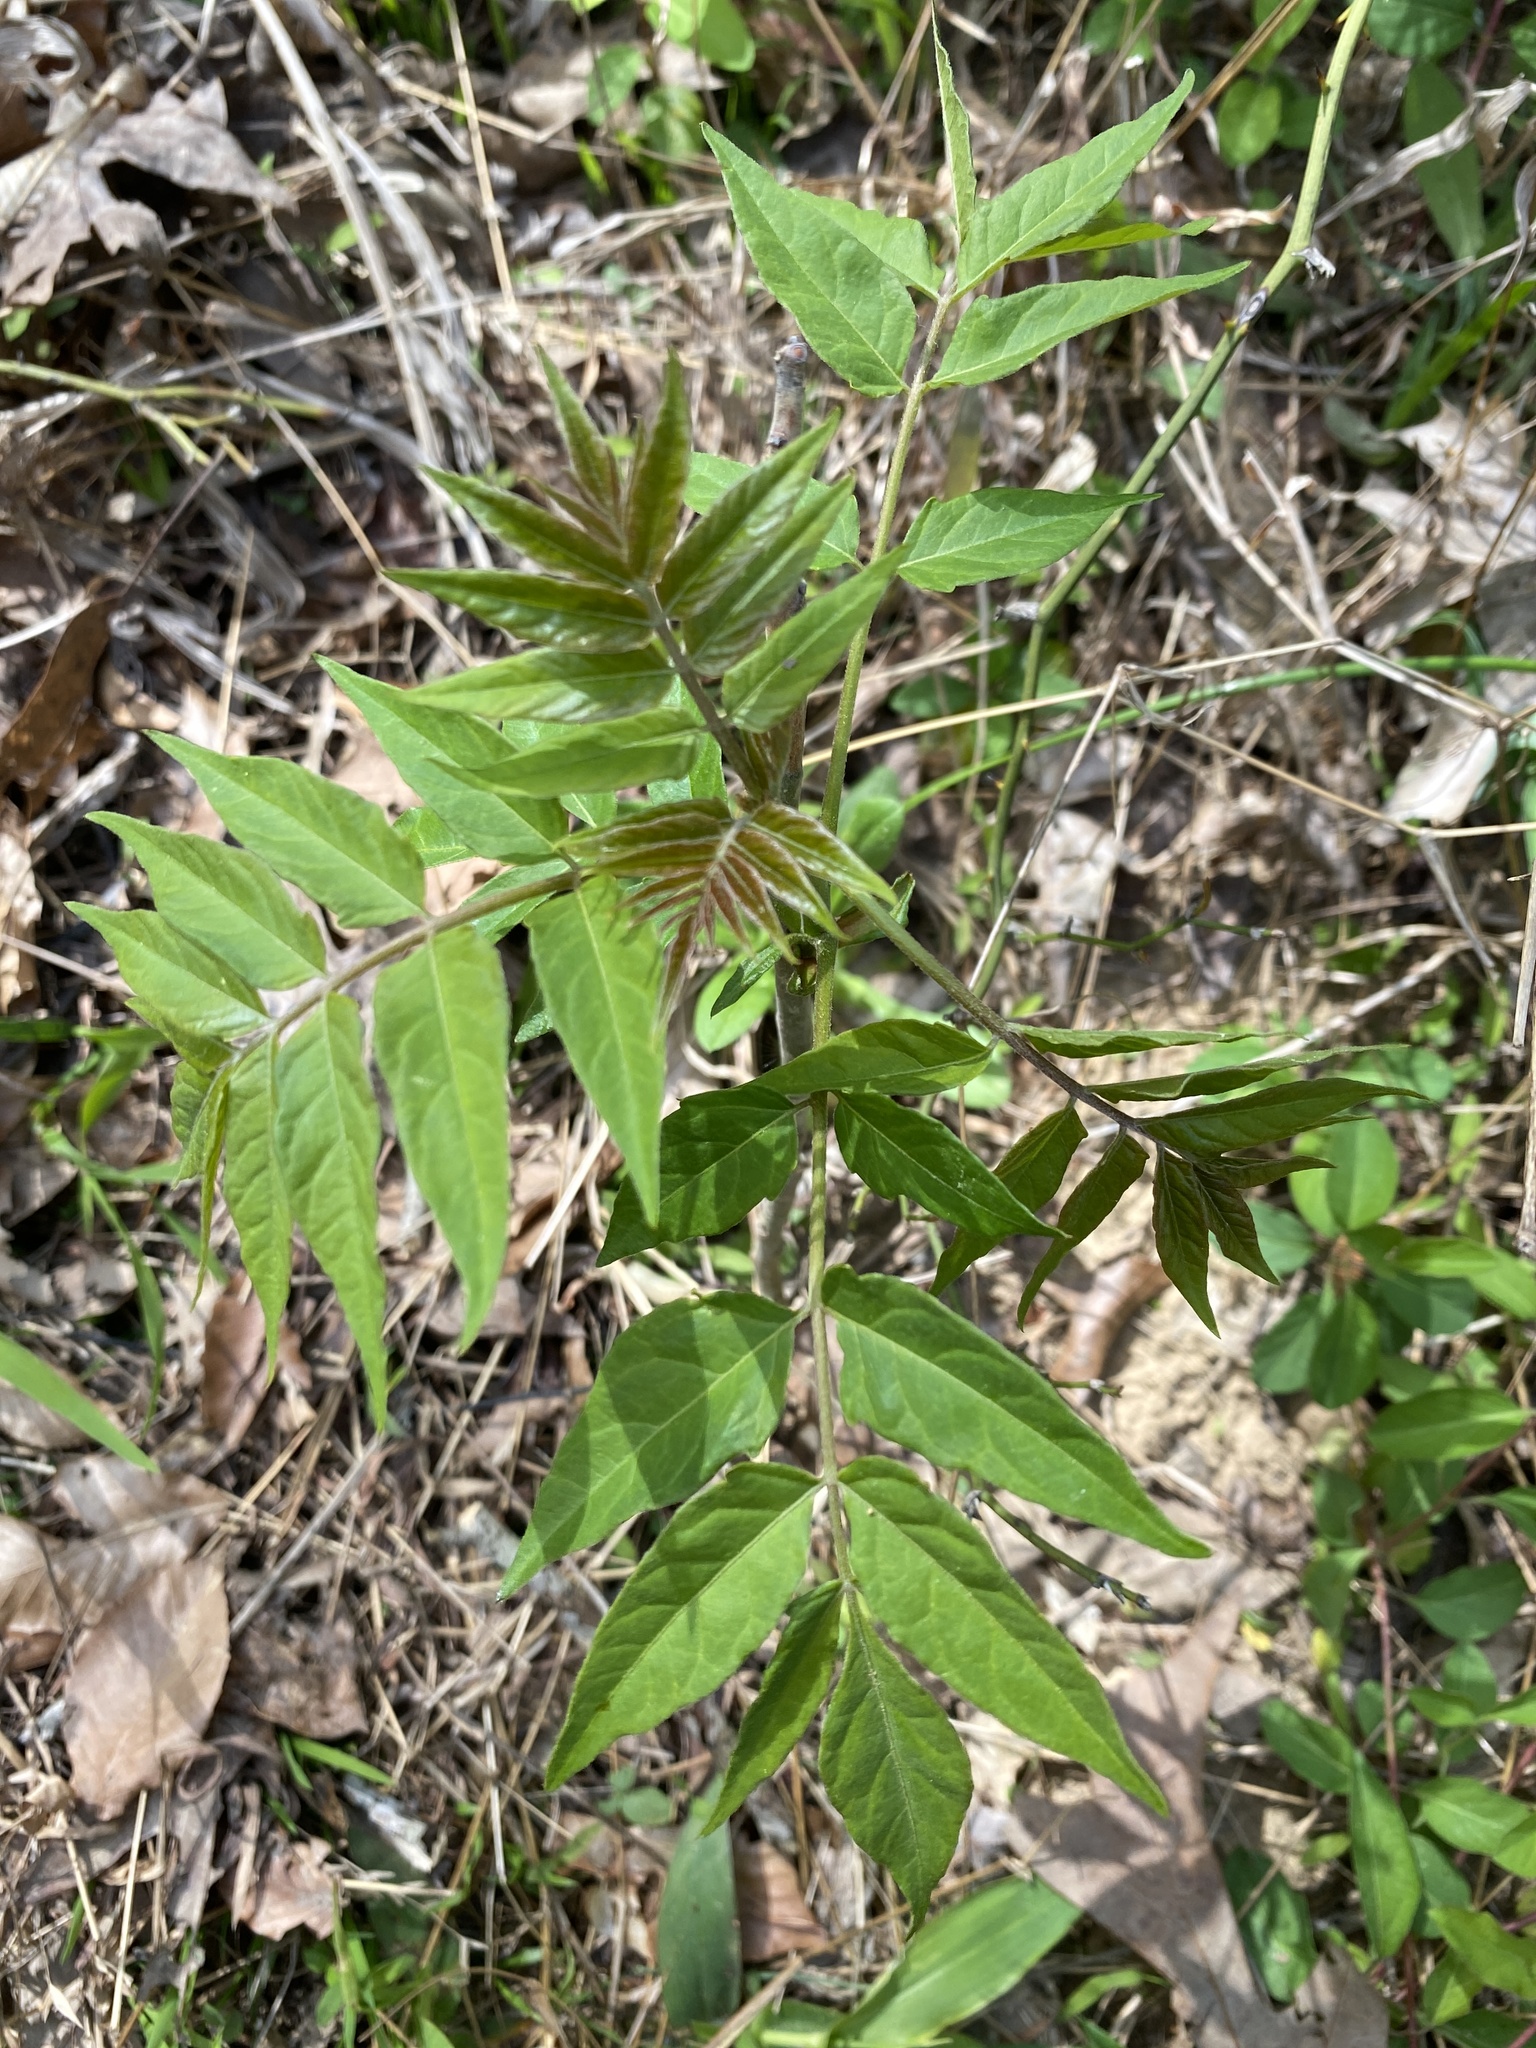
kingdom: Plantae
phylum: Tracheophyta
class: Magnoliopsida
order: Sapindales
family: Simaroubaceae
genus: Ailanthus
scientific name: Ailanthus altissima
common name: Tree-of-heaven
